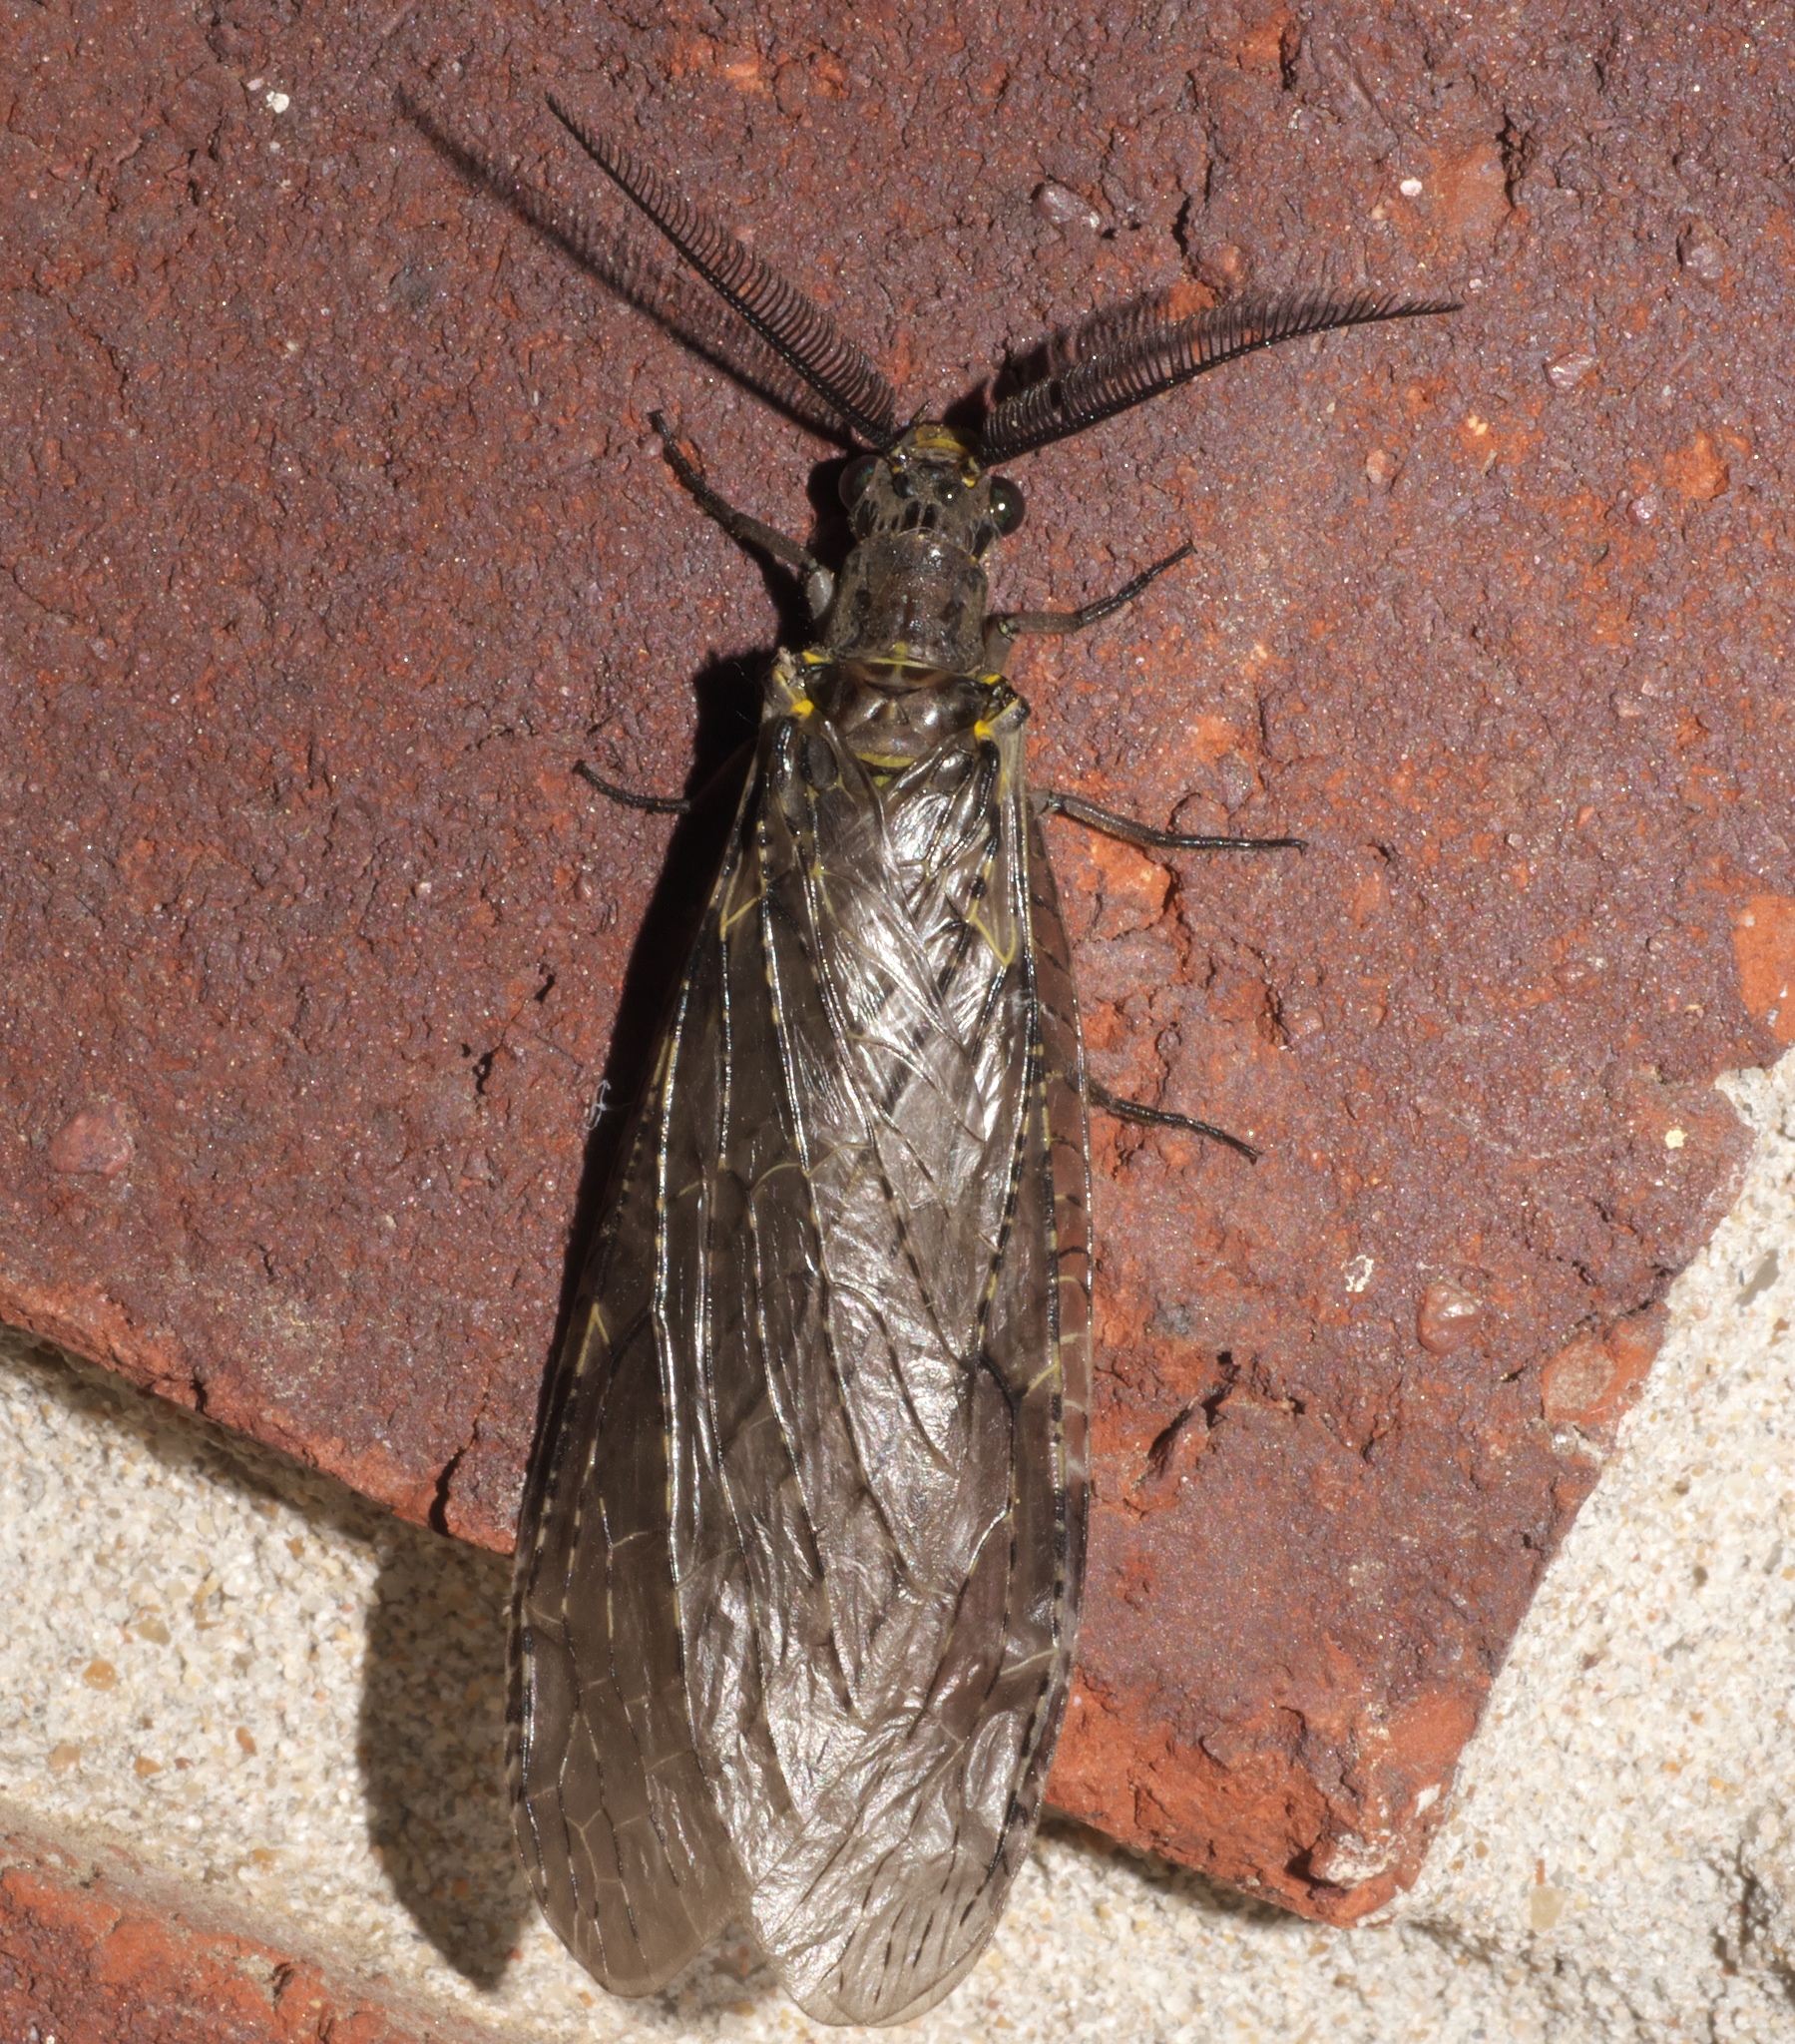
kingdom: Animalia
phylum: Arthropoda
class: Insecta
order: Megaloptera
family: Corydalidae
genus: Chauliodes
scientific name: Chauliodes rastricornis
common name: Spring fishfly
